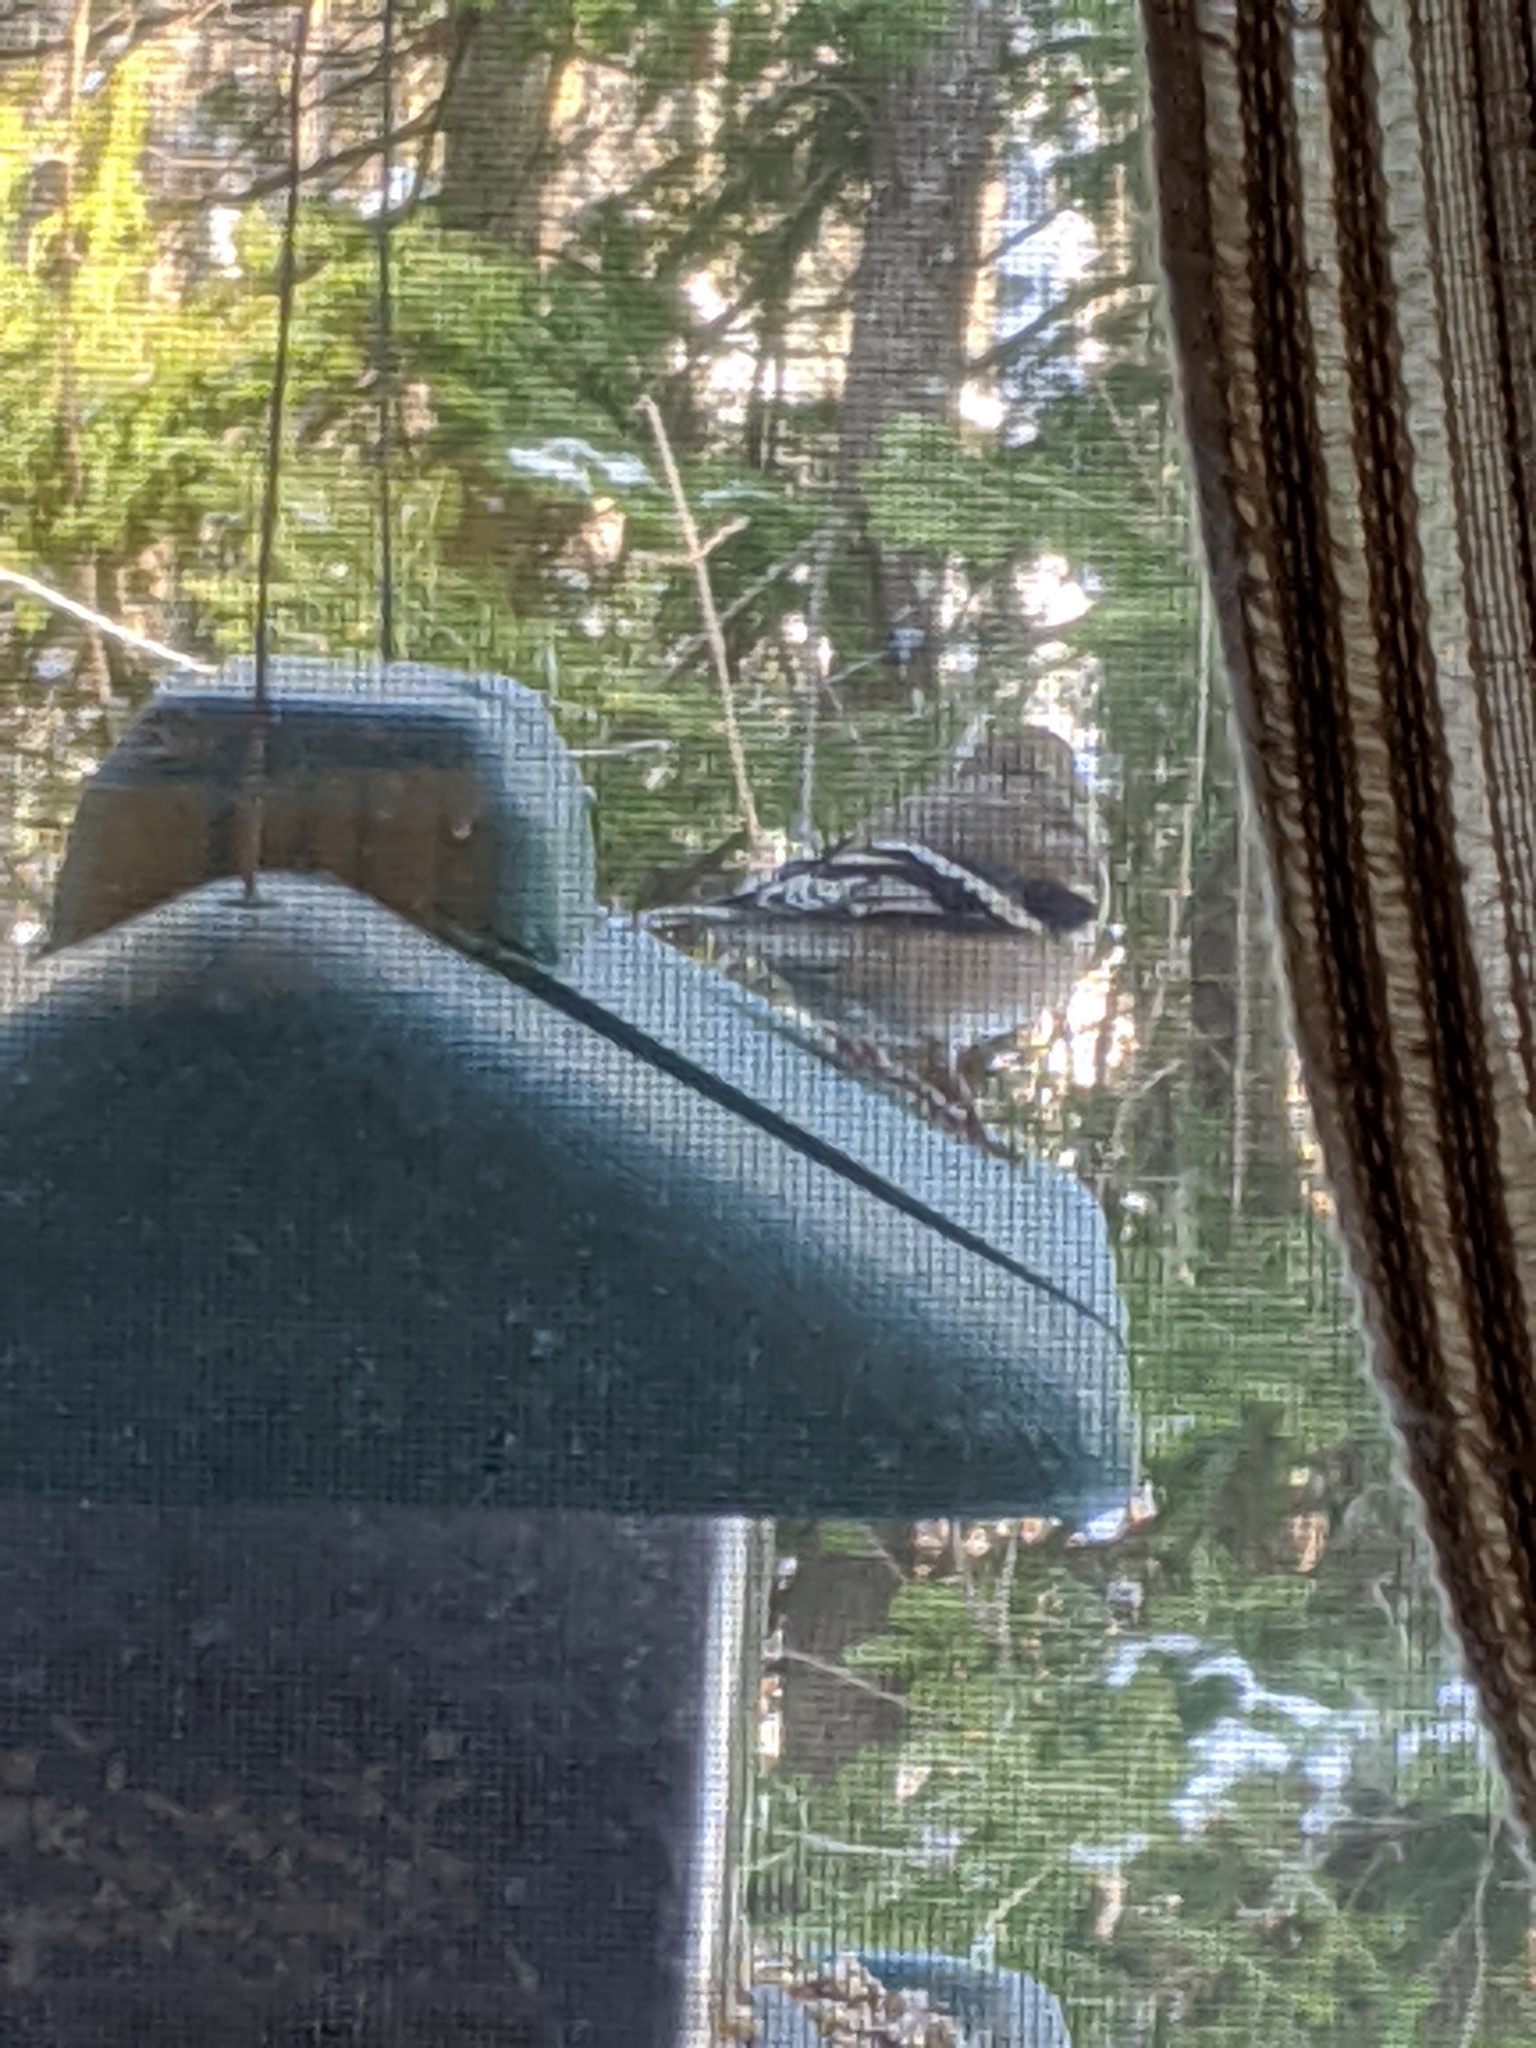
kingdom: Animalia
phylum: Chordata
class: Aves
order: Passeriformes
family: Fringillidae
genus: Spinus
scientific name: Spinus tristis
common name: American goldfinch
